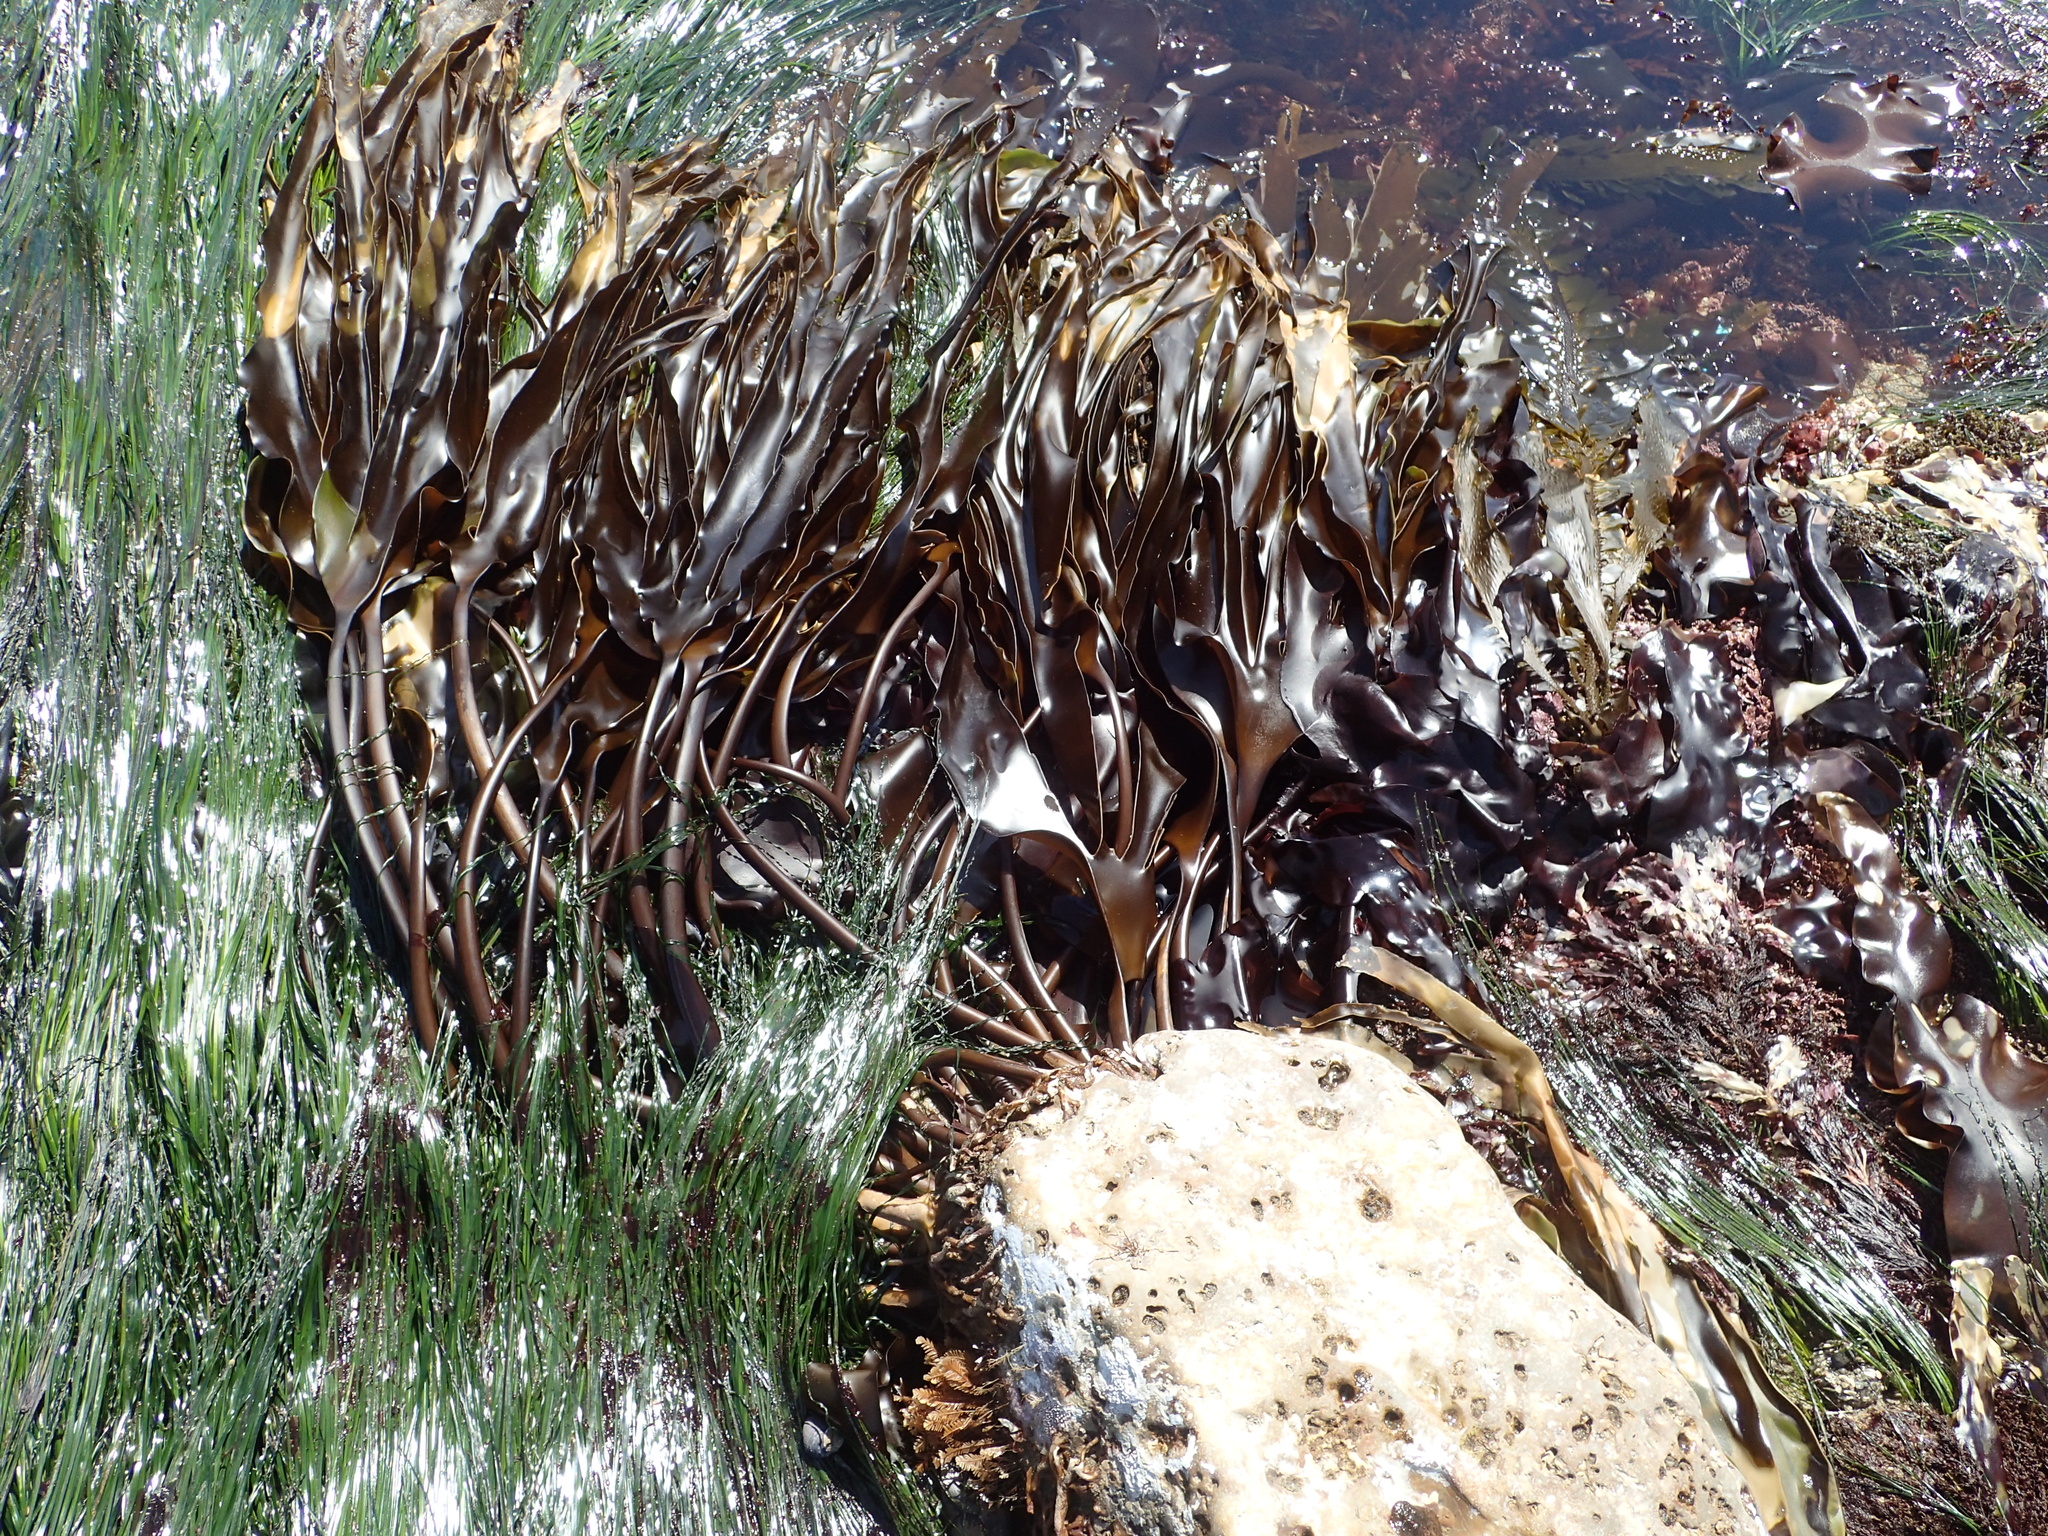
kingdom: Chromista
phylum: Ochrophyta
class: Phaeophyceae
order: Laminariales
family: Laminariaceae
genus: Laminaria
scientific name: Laminaria setchellii
